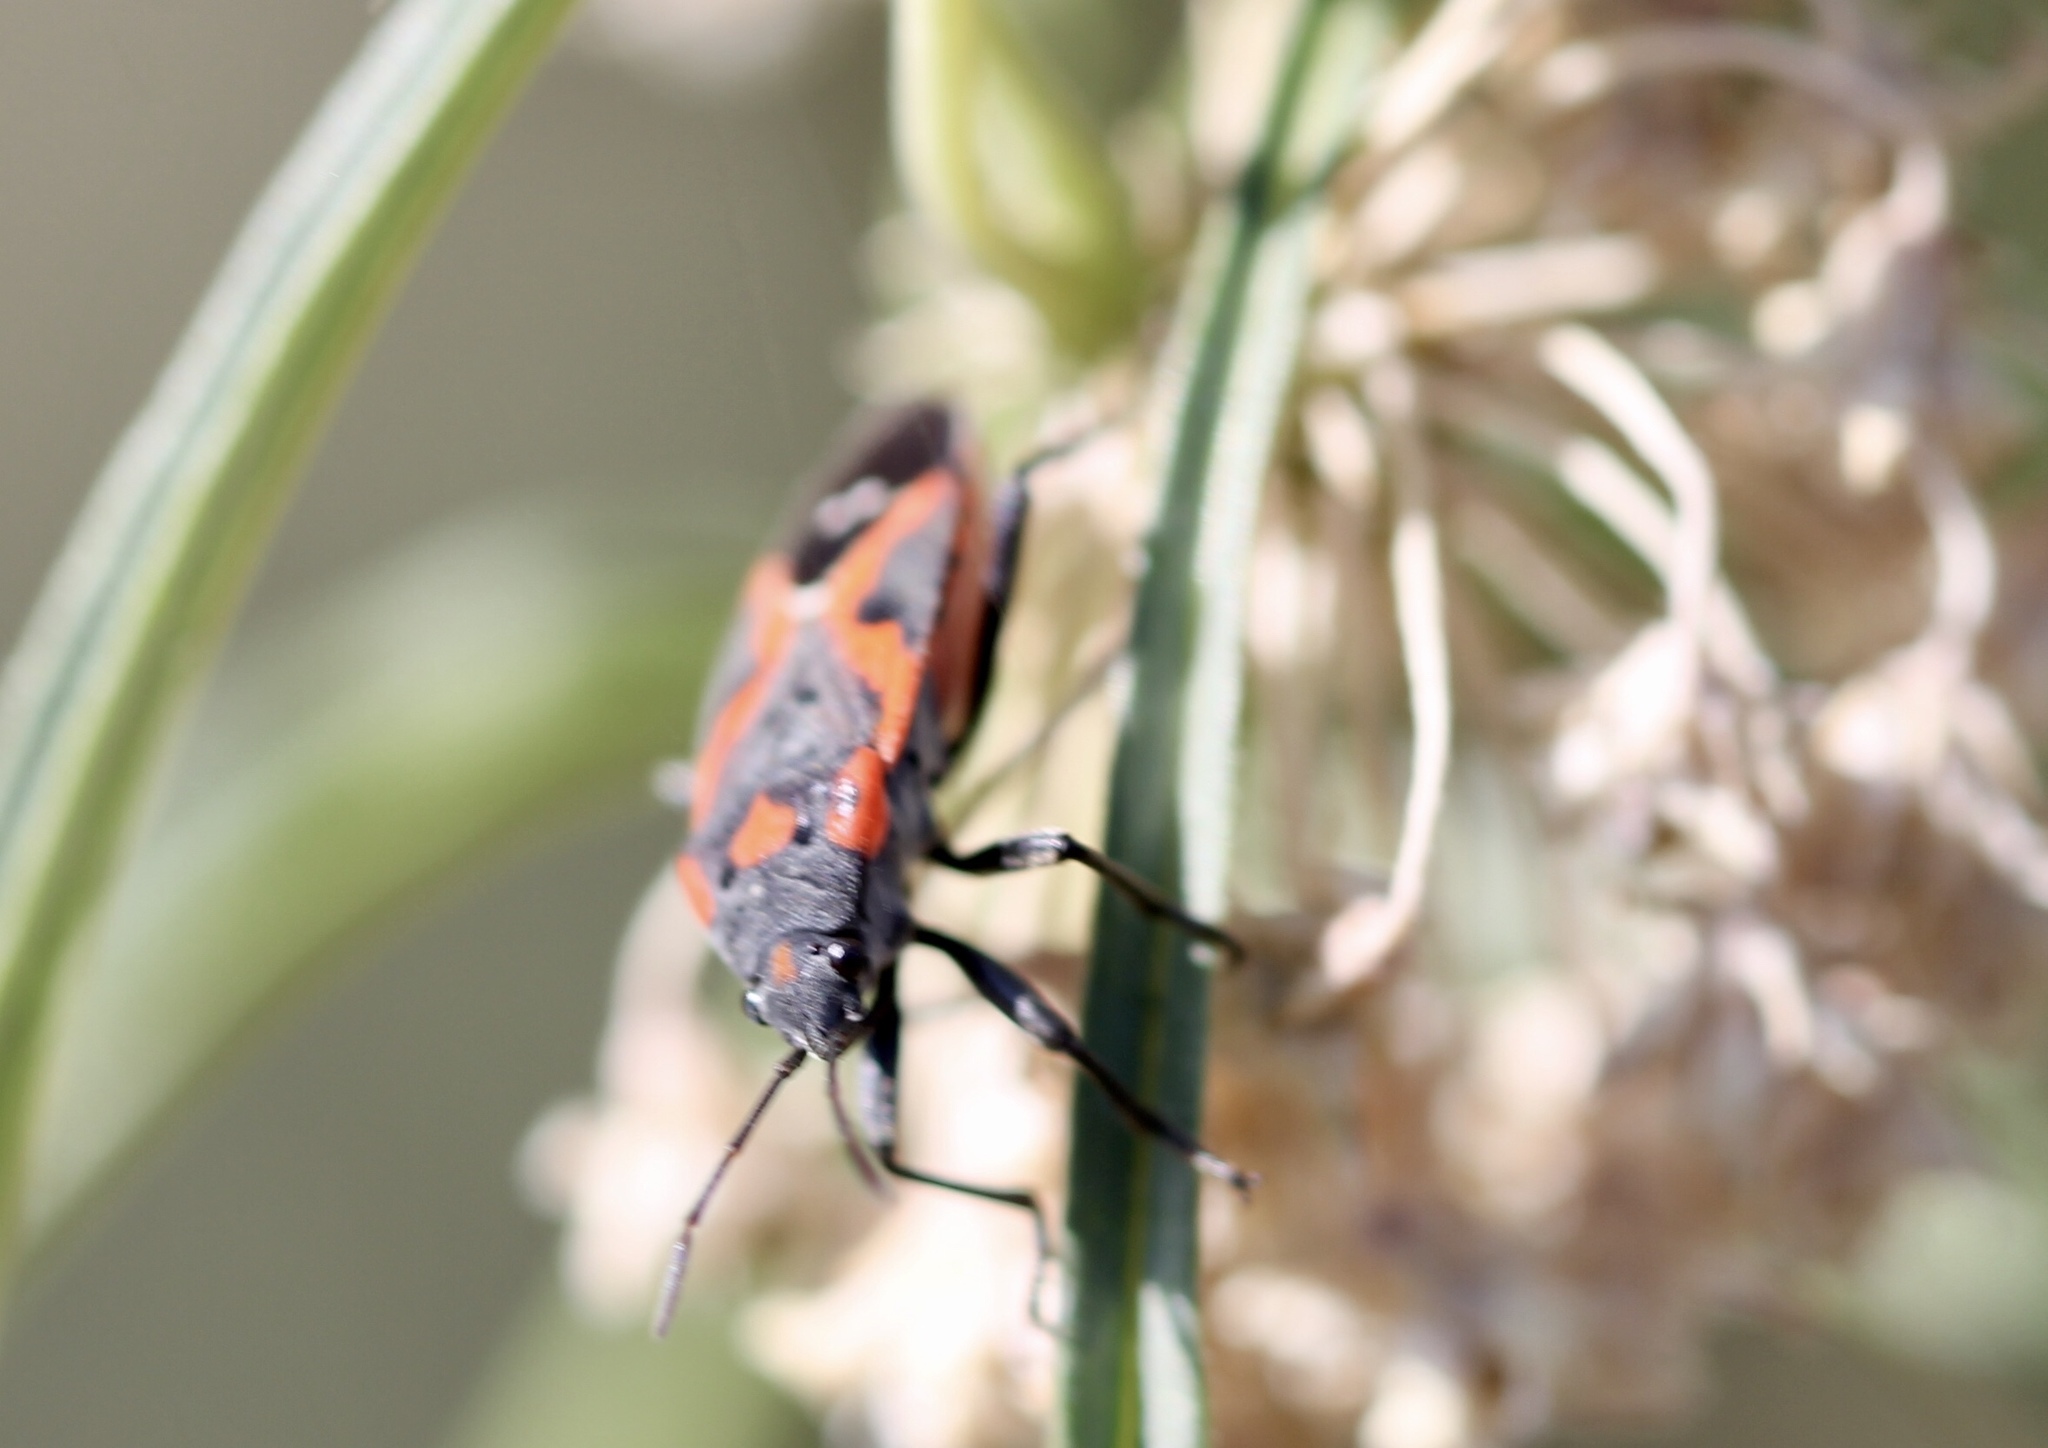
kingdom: Animalia
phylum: Arthropoda
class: Insecta
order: Hemiptera
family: Lygaeidae
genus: Lygaeus
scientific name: Lygaeus kalmii
